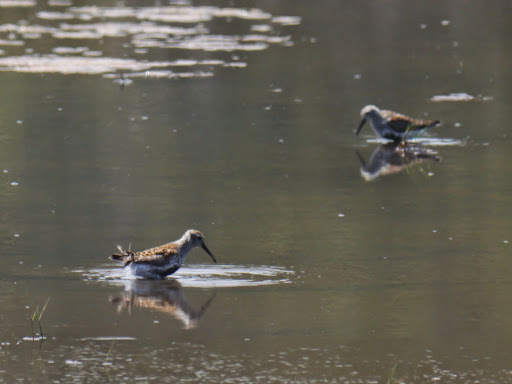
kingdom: Animalia
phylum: Chordata
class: Aves
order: Charadriiformes
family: Scolopacidae
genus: Calidris
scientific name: Calidris alpina
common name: Dunlin
